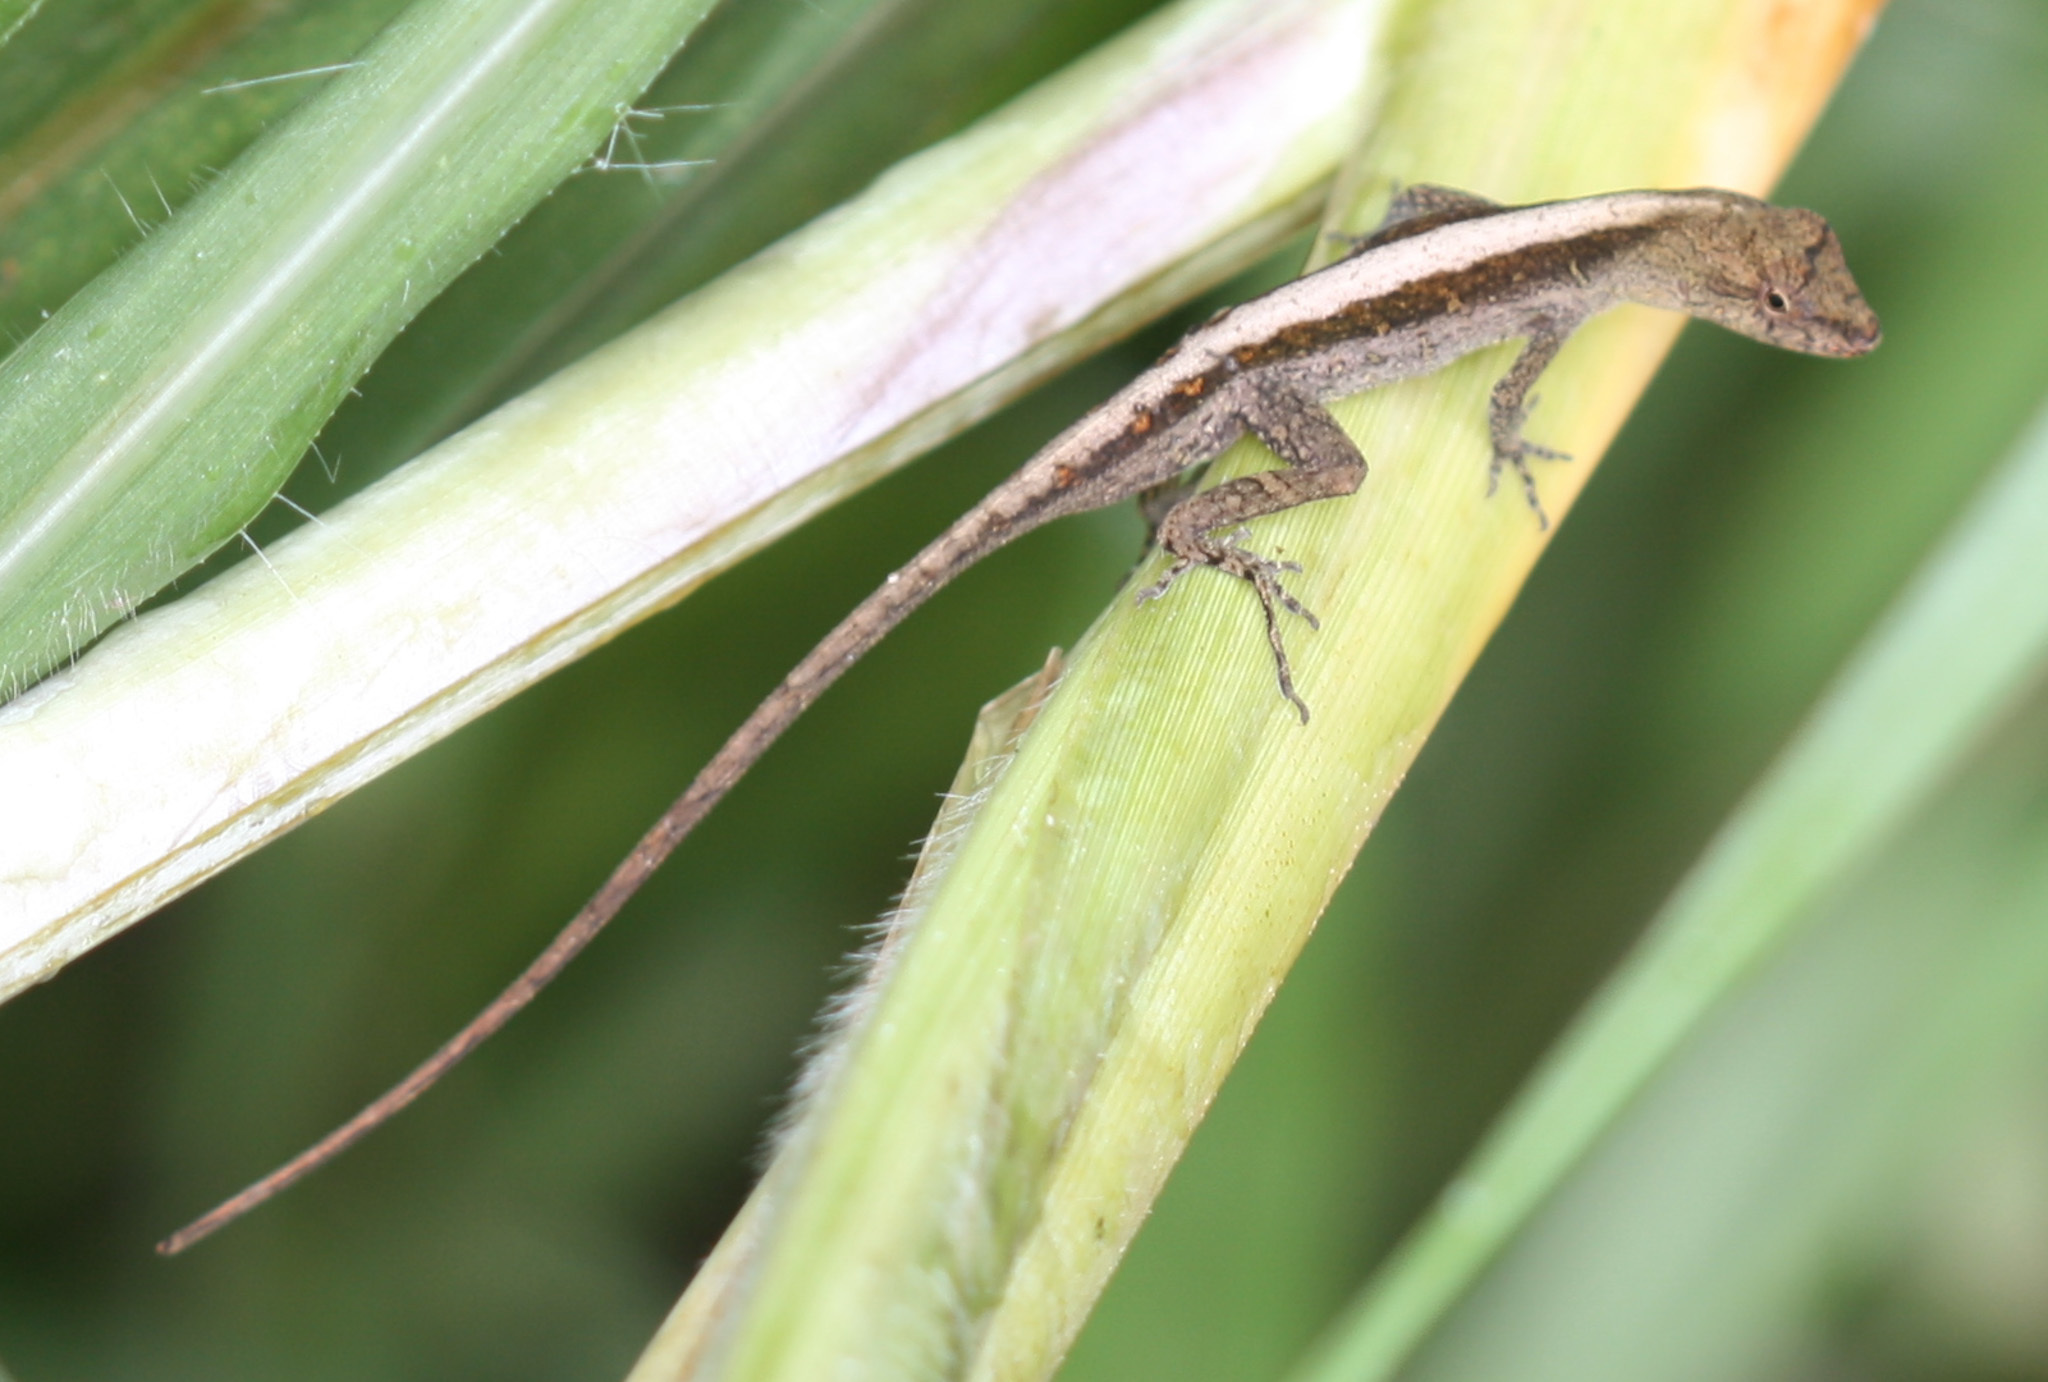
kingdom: Animalia
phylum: Chordata
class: Squamata
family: Dactyloidae
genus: Anolis
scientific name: Anolis cupreus
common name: Copper anole
